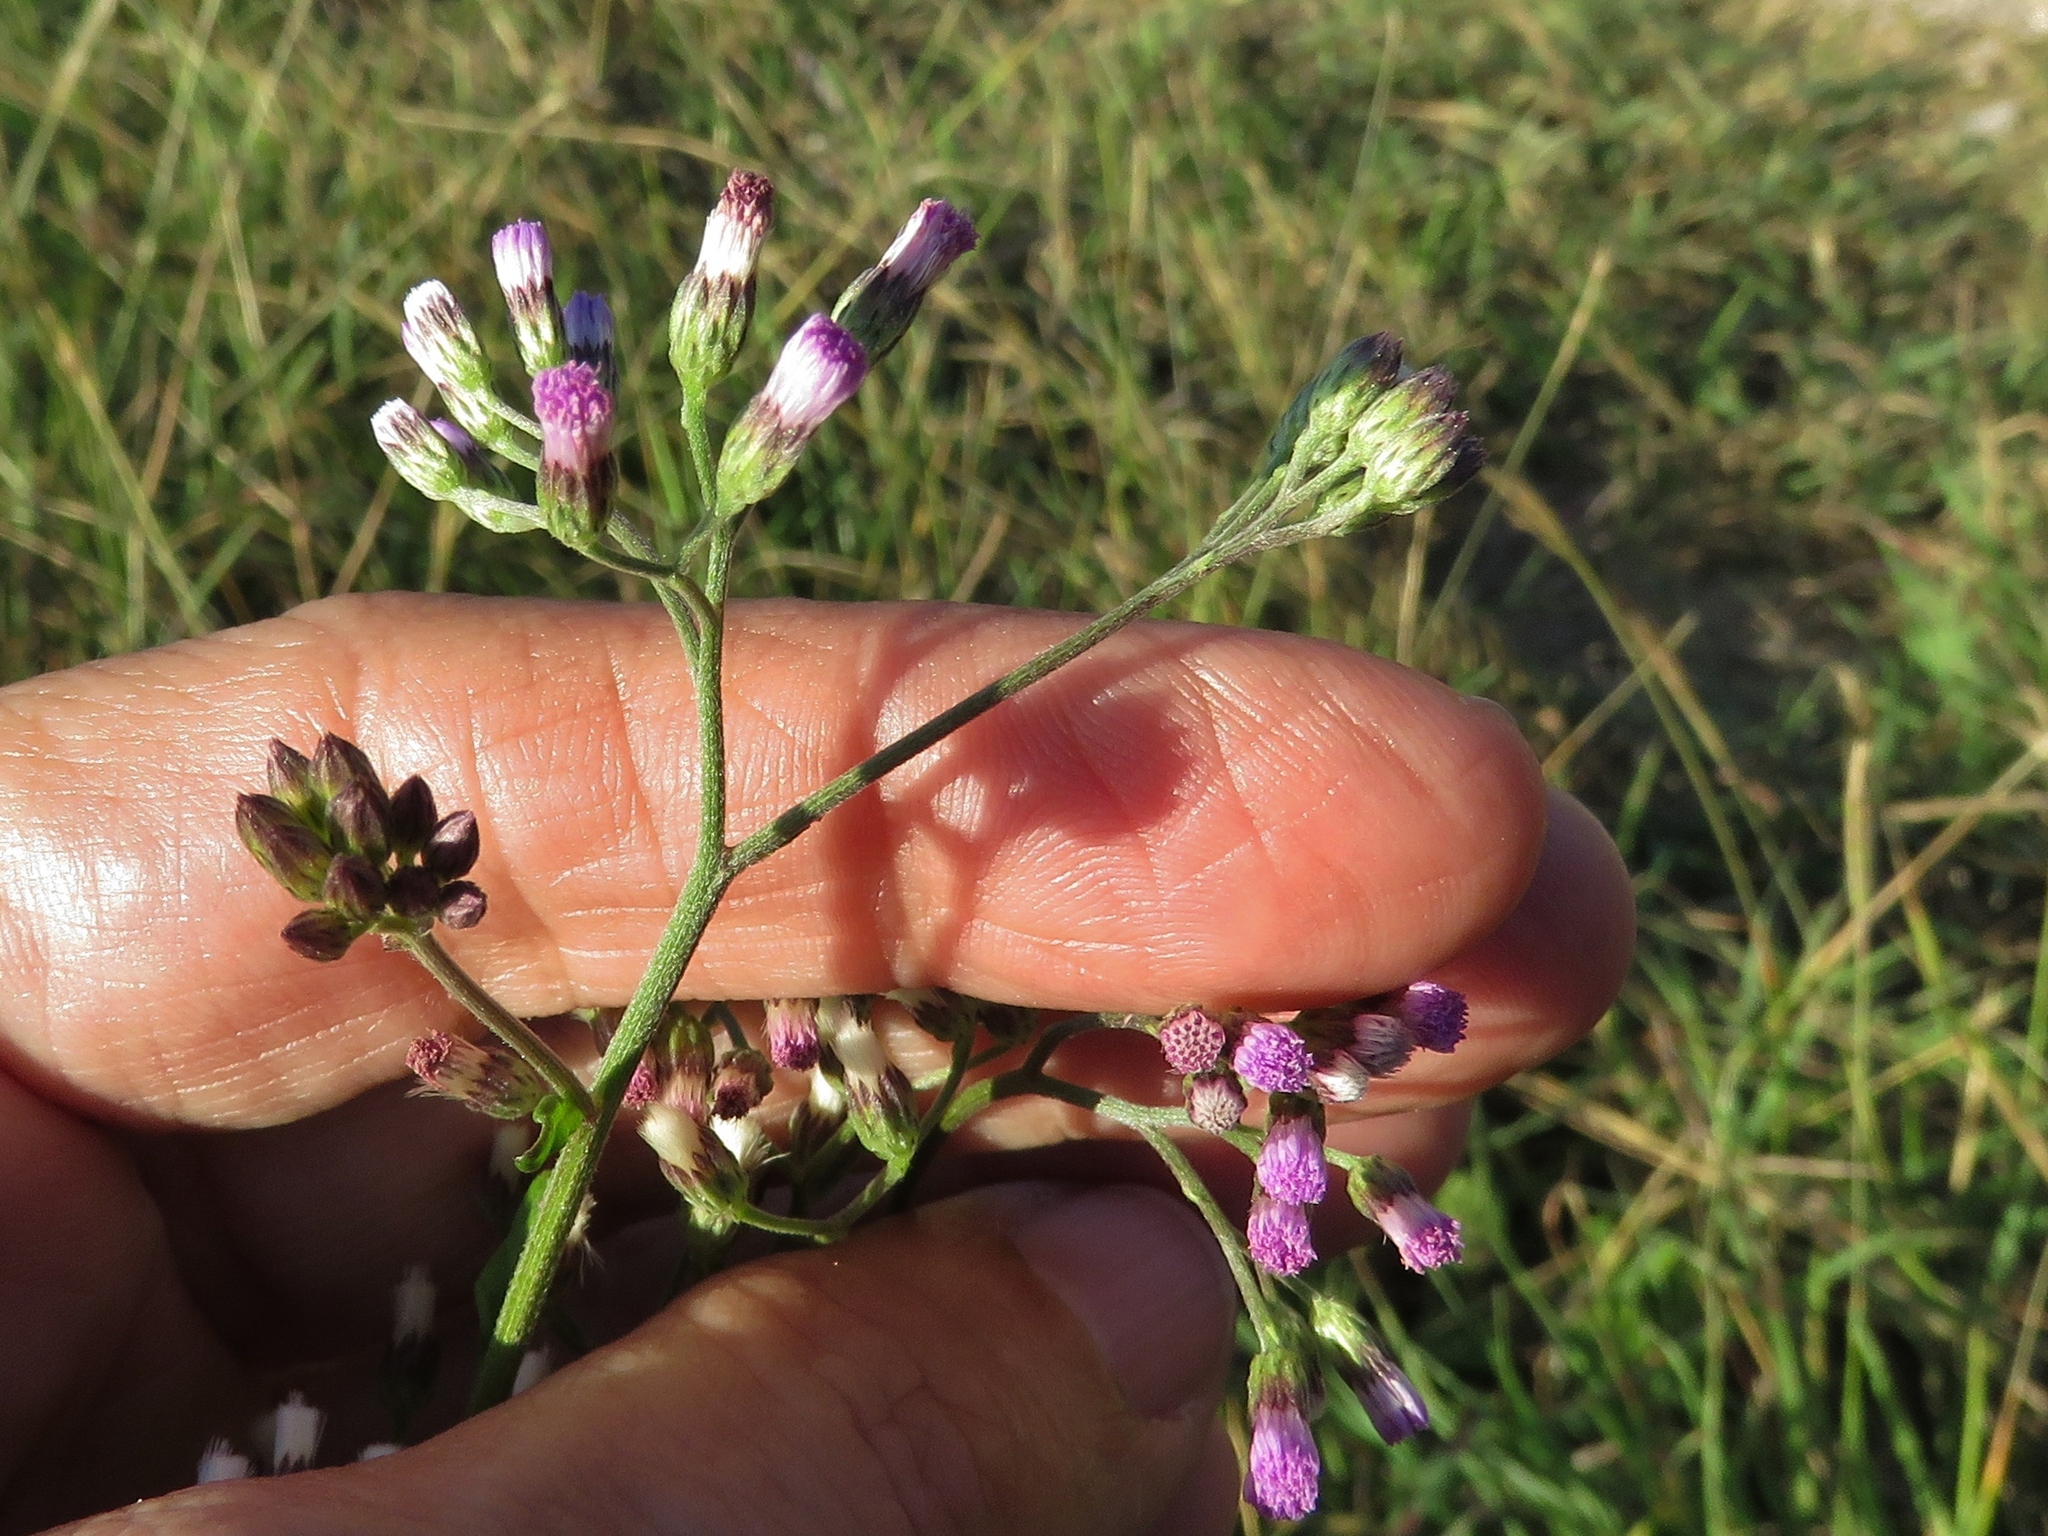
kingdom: Plantae
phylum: Tracheophyta
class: Magnoliopsida
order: Asterales
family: Asteraceae
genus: Cyanthillium
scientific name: Cyanthillium cinereum
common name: Little ironweed
